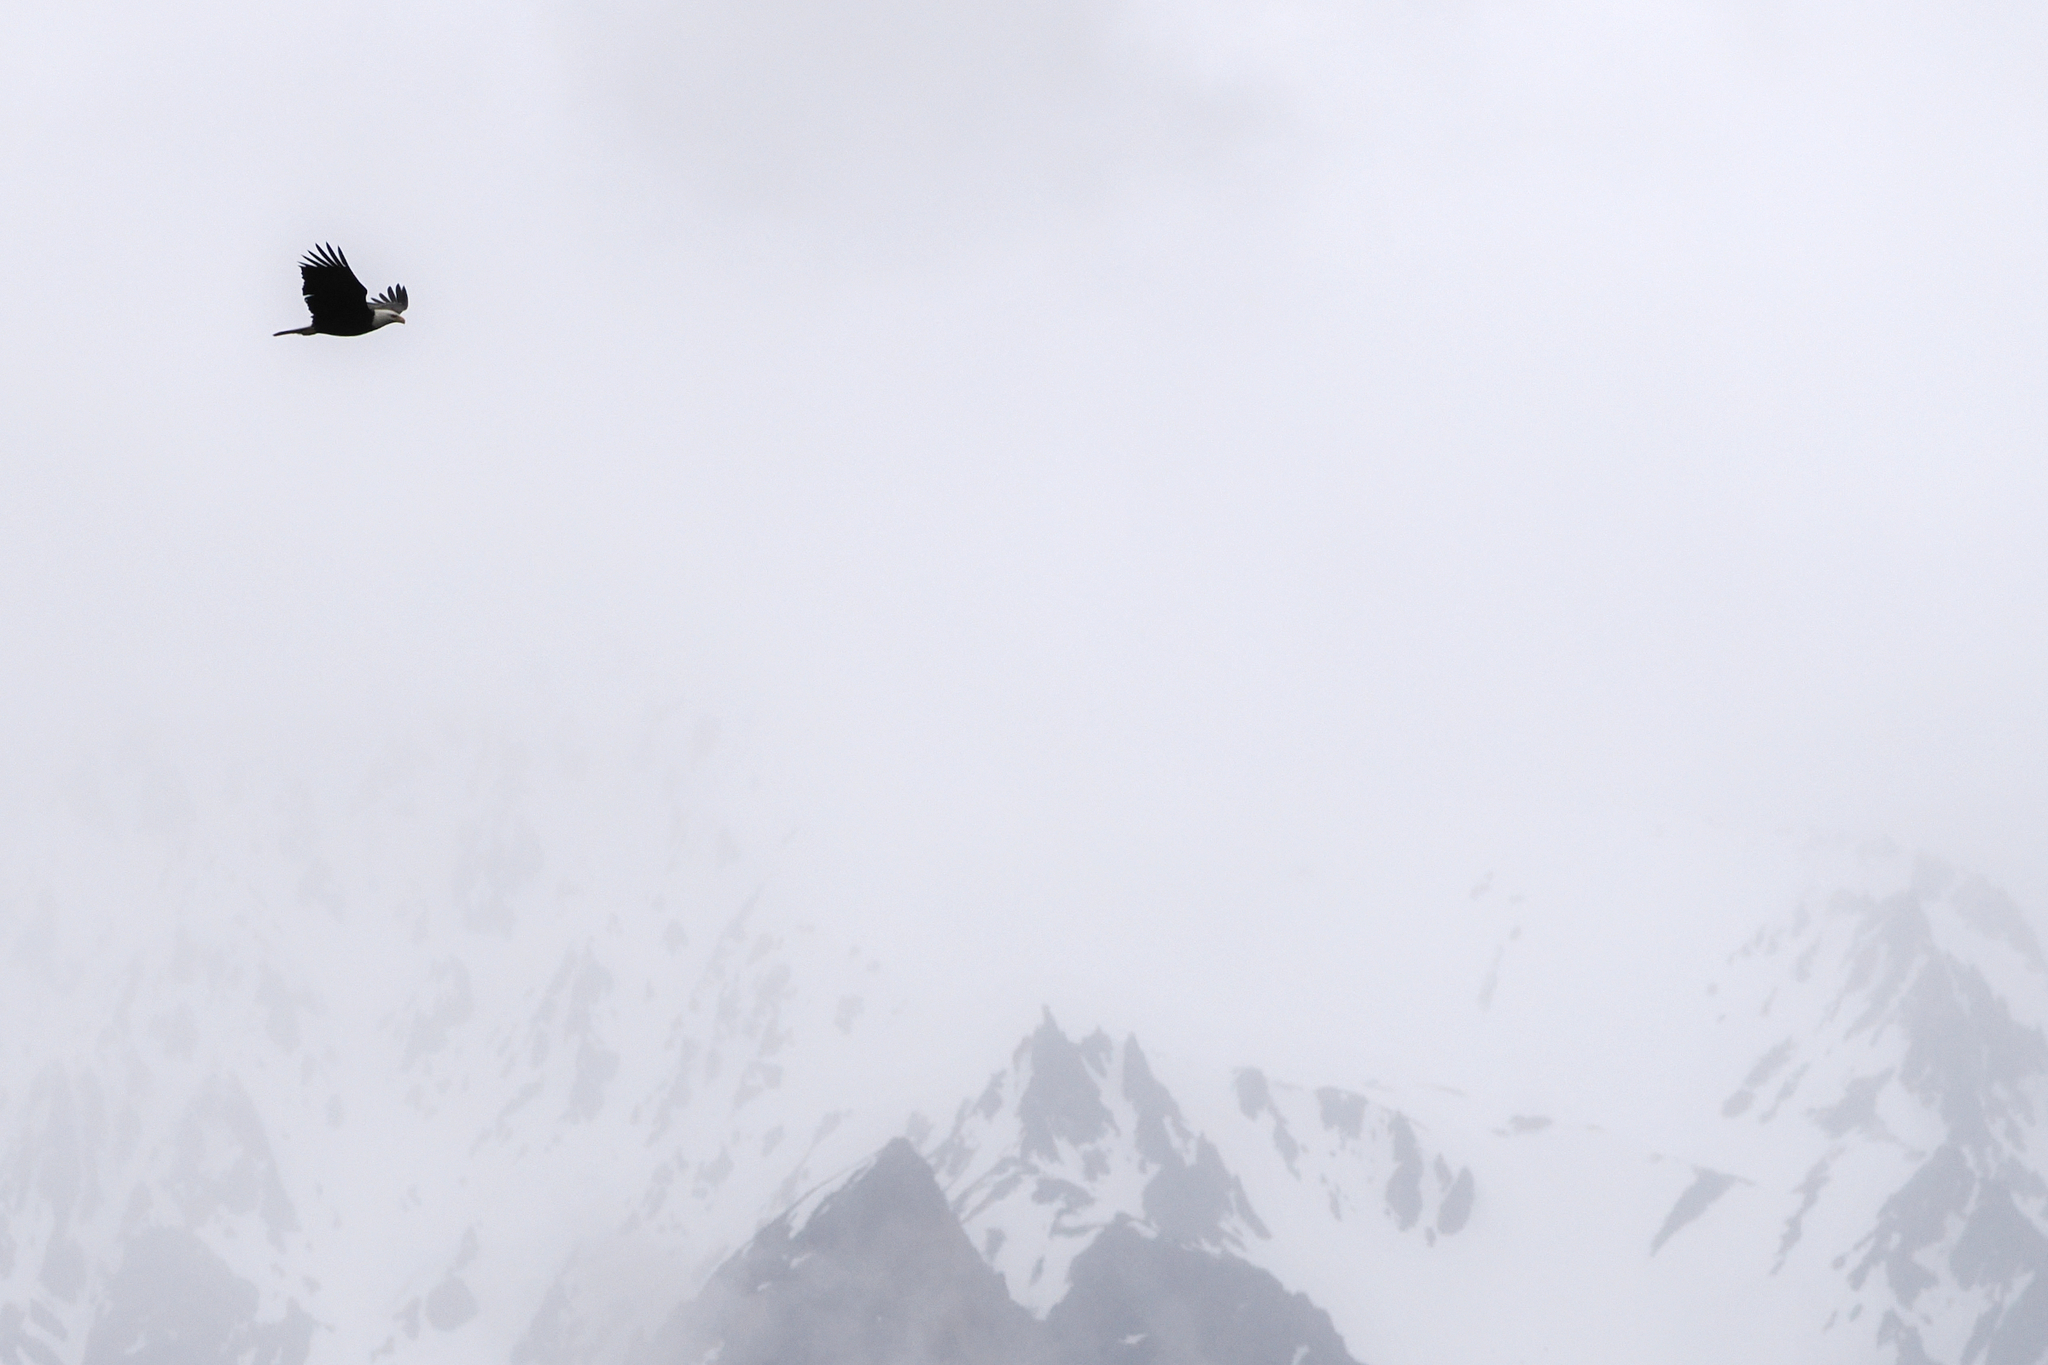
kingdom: Animalia
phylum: Chordata
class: Aves
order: Accipitriformes
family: Accipitridae
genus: Haliaeetus
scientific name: Haliaeetus leucocephalus
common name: Bald eagle
